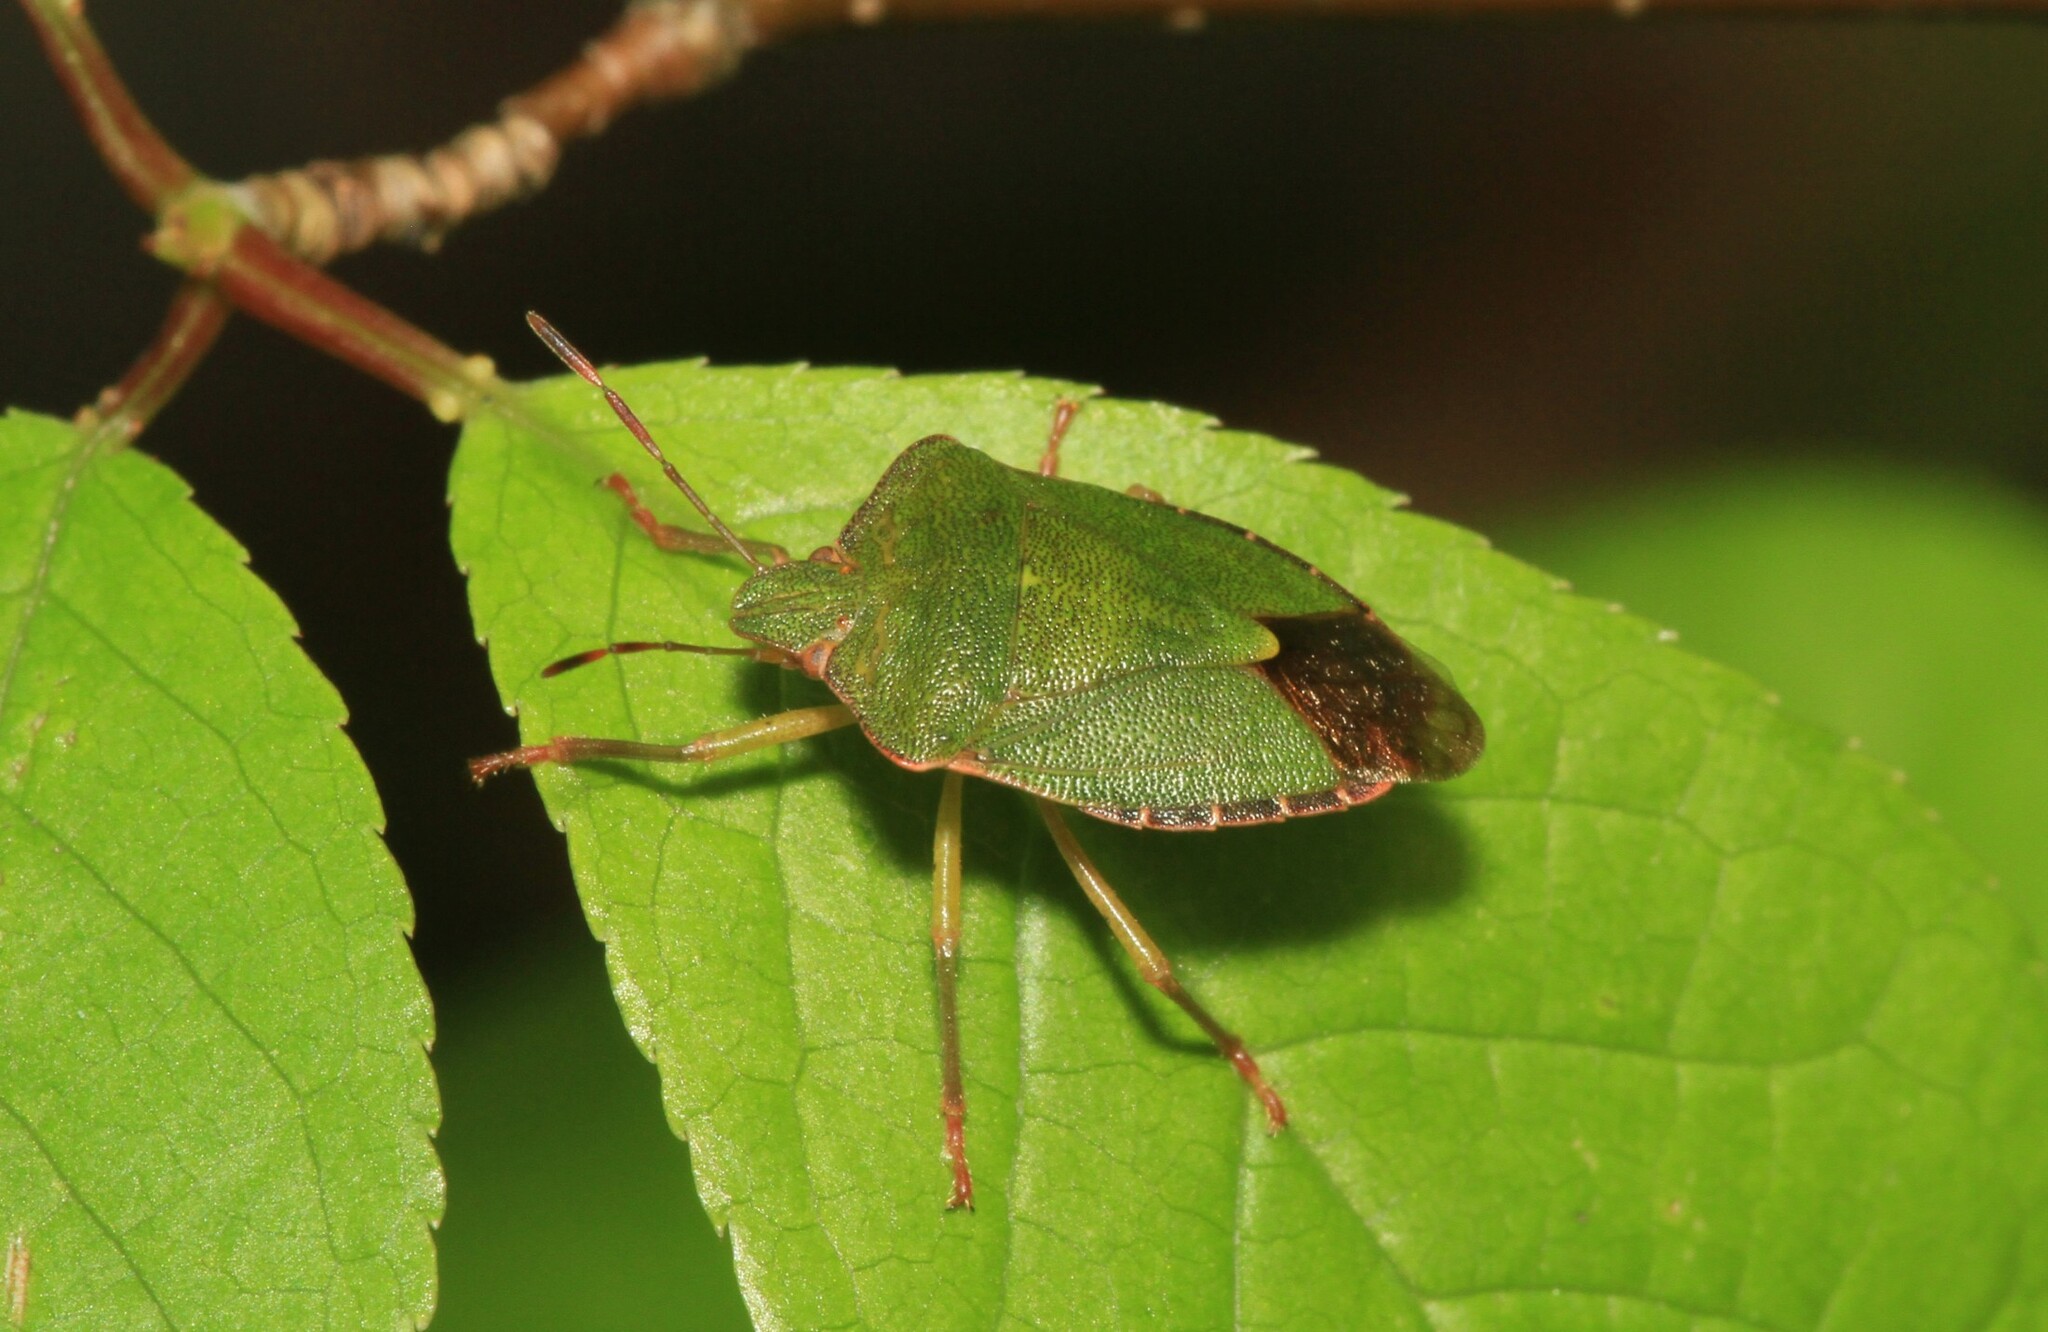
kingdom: Animalia
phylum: Arthropoda
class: Insecta
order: Hemiptera
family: Pentatomidae
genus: Palomena
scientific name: Palomena prasina
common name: Green shieldbug
